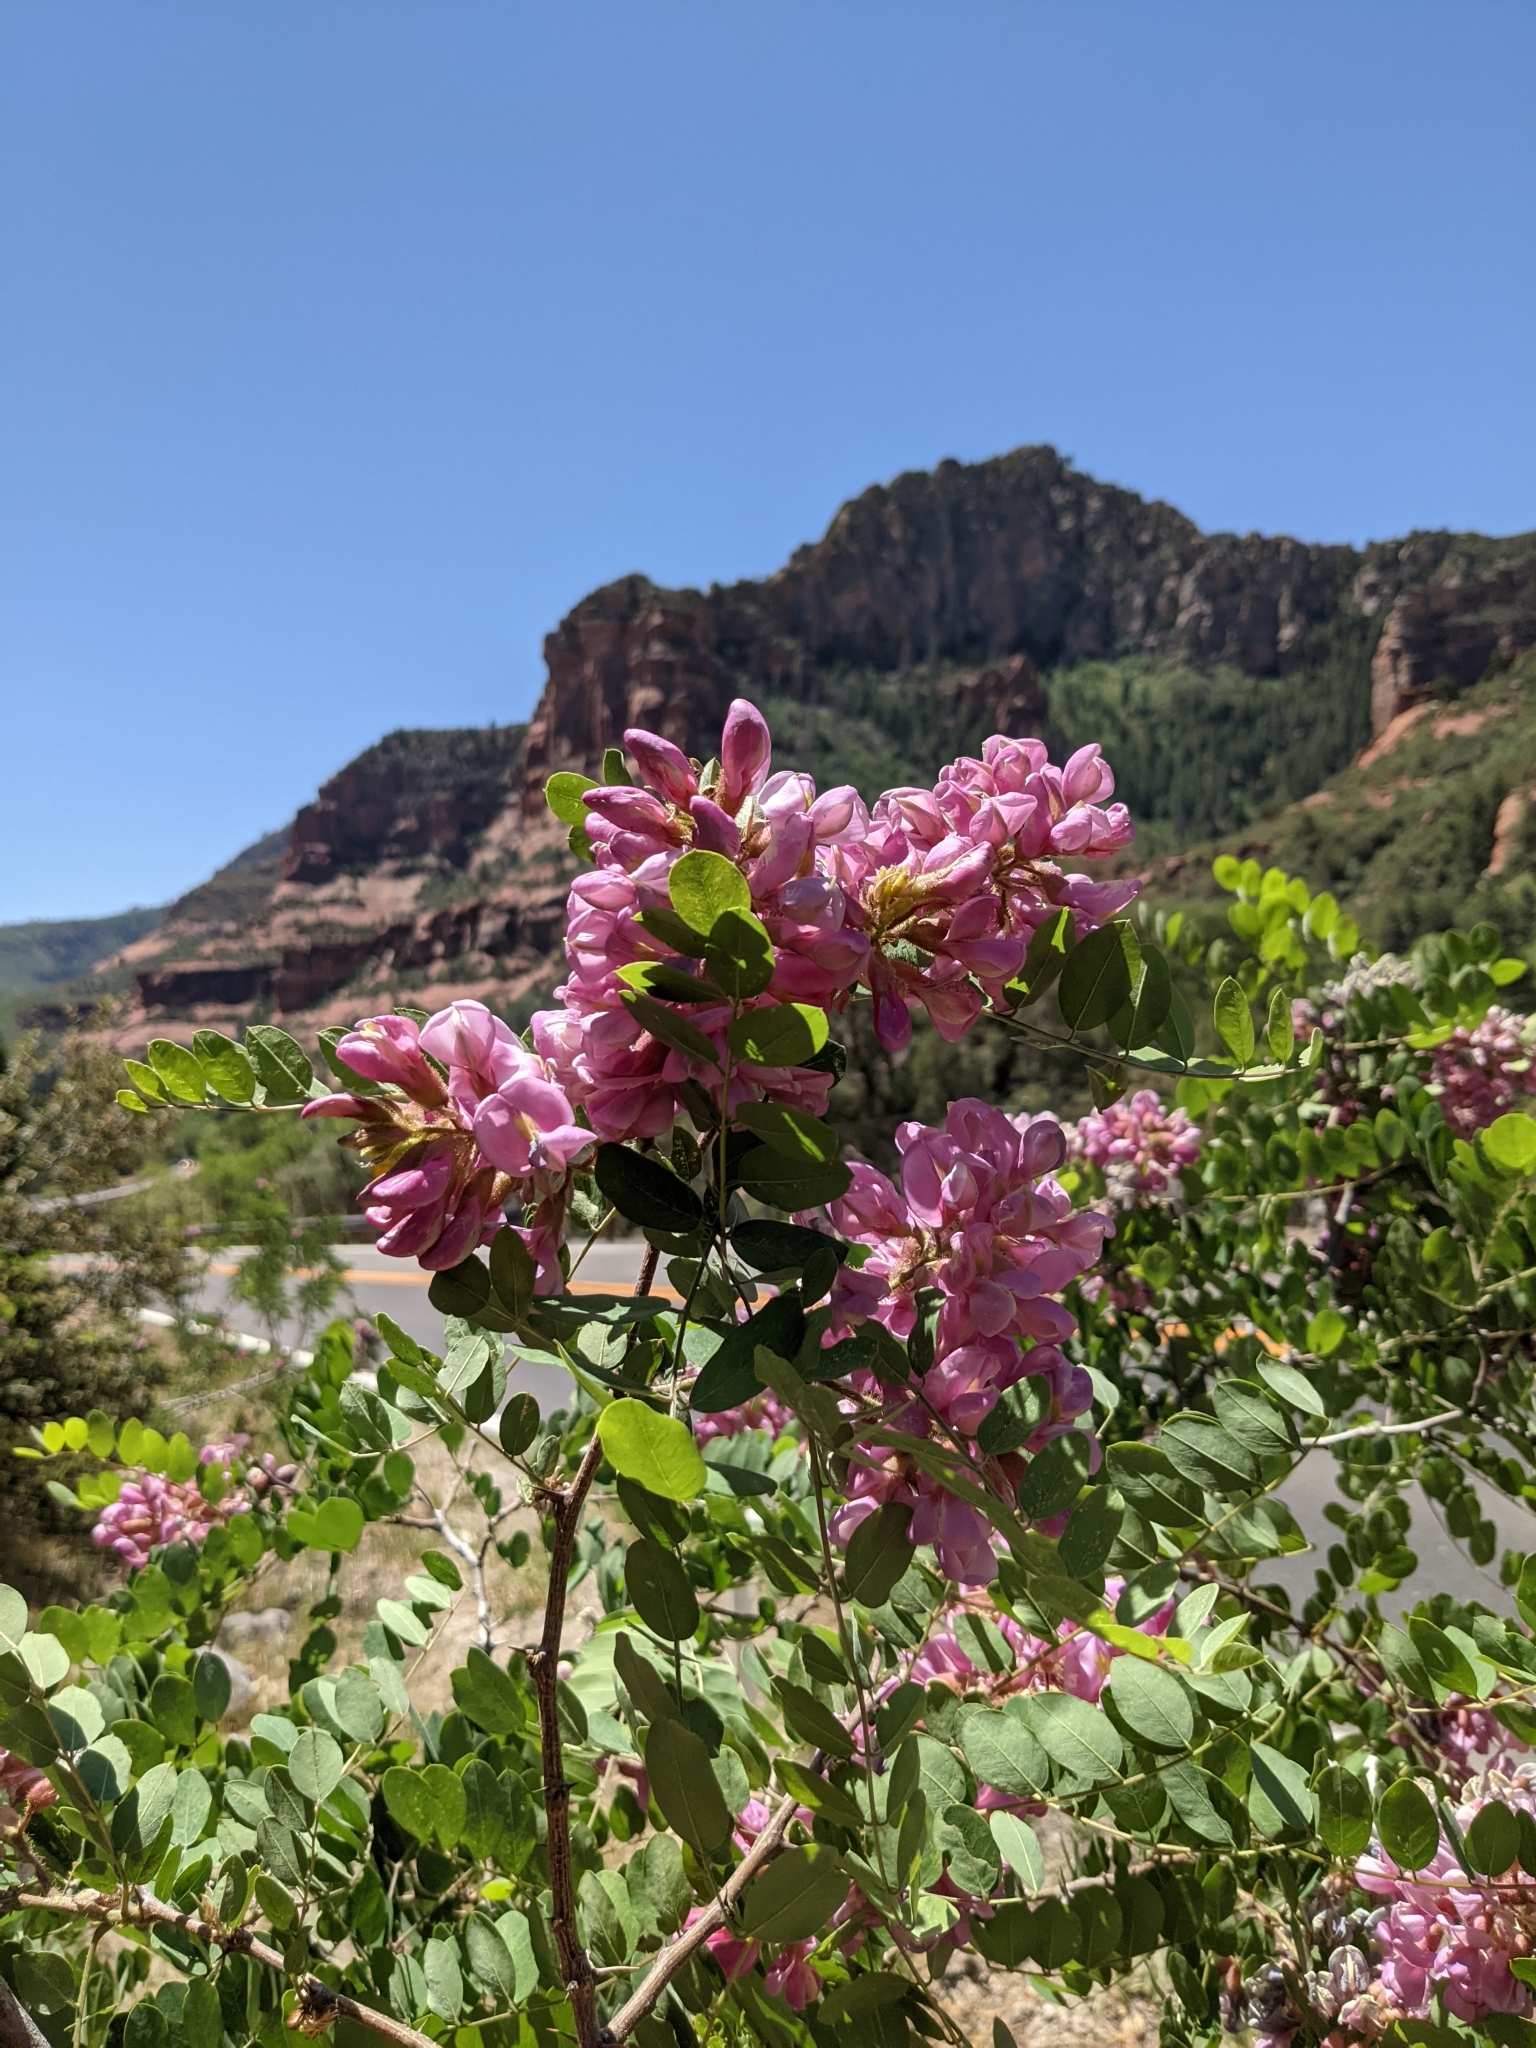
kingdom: Plantae
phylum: Tracheophyta
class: Magnoliopsida
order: Fabales
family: Fabaceae
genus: Robinia
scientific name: Robinia neomexicana
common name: New mexico locust
